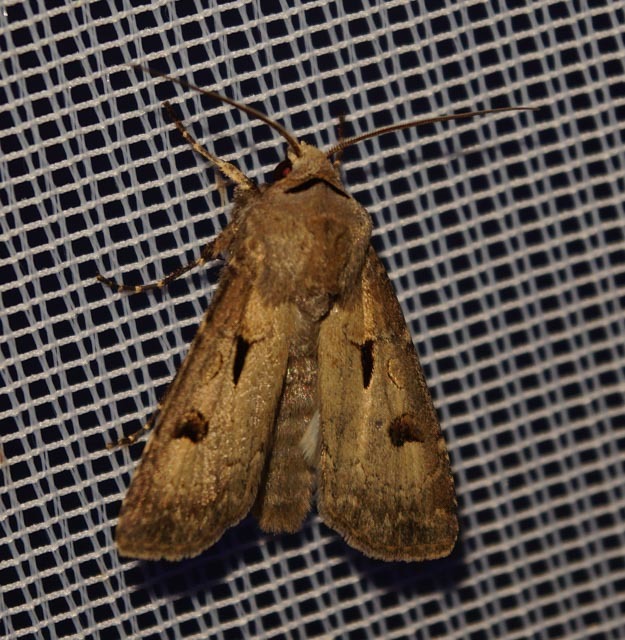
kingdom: Animalia
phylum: Arthropoda
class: Insecta
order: Lepidoptera
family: Noctuidae
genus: Agrotis
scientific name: Agrotis exclamationis
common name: Heart and dart
